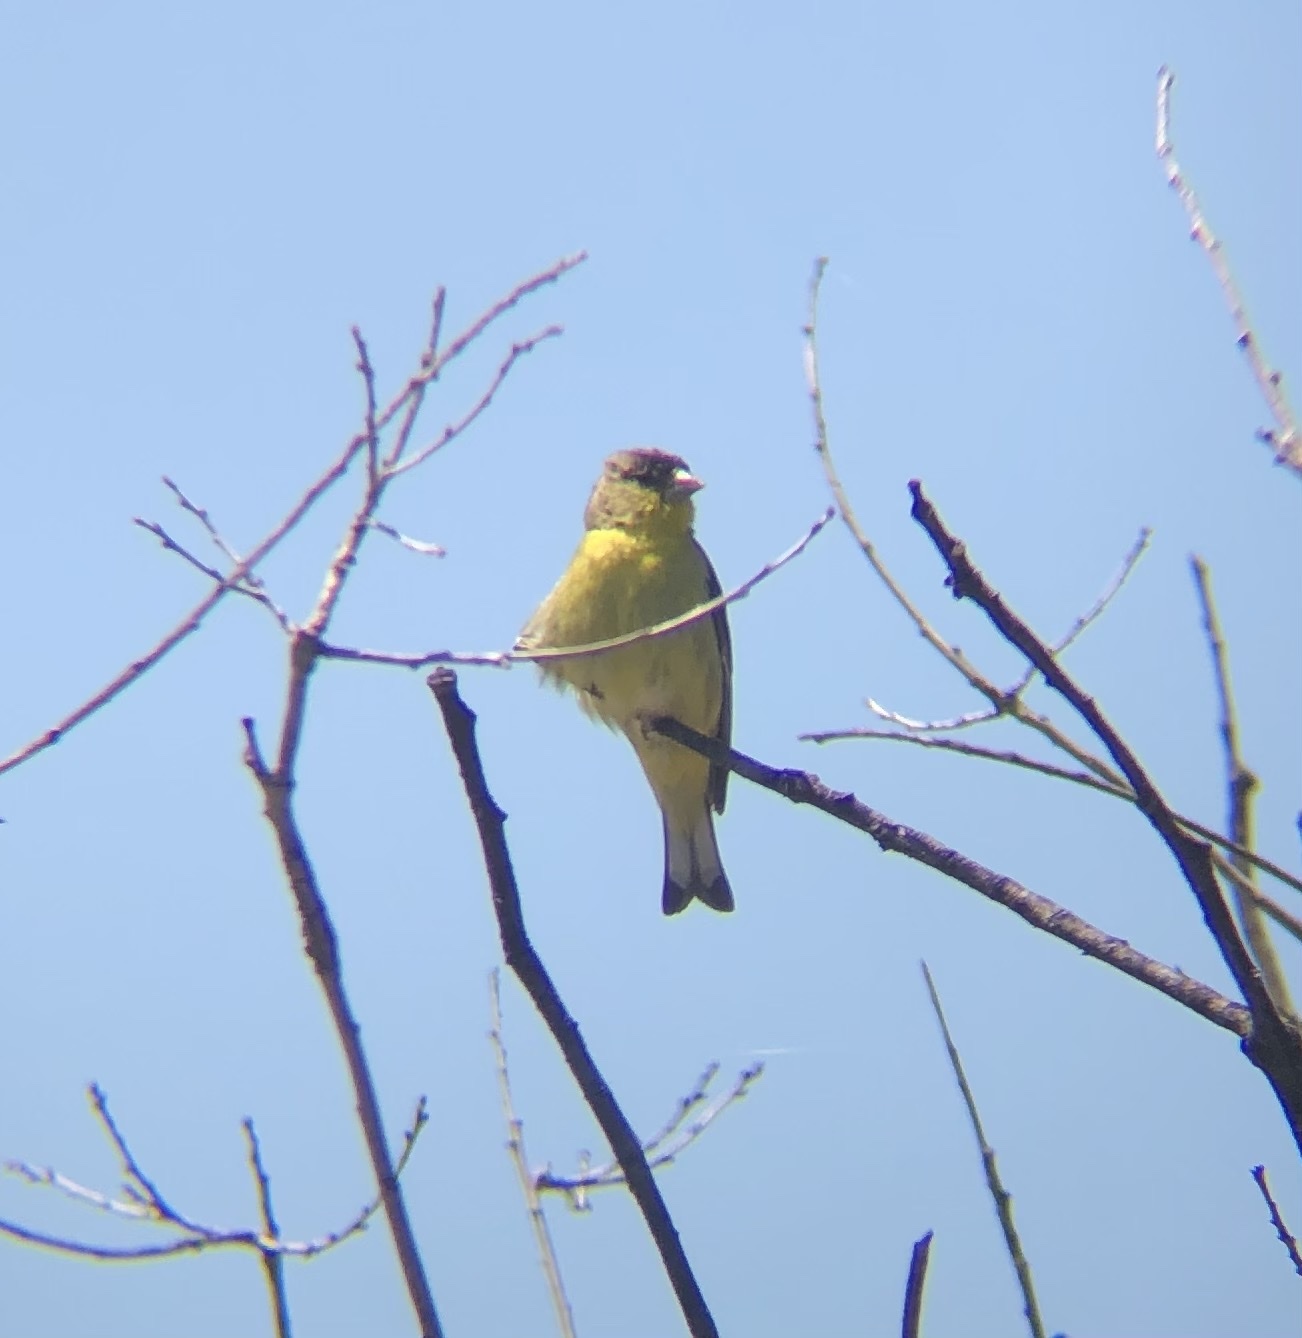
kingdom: Animalia
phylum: Chordata
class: Aves
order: Passeriformes
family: Fringillidae
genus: Spinus
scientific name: Spinus psaltria
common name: Lesser goldfinch
